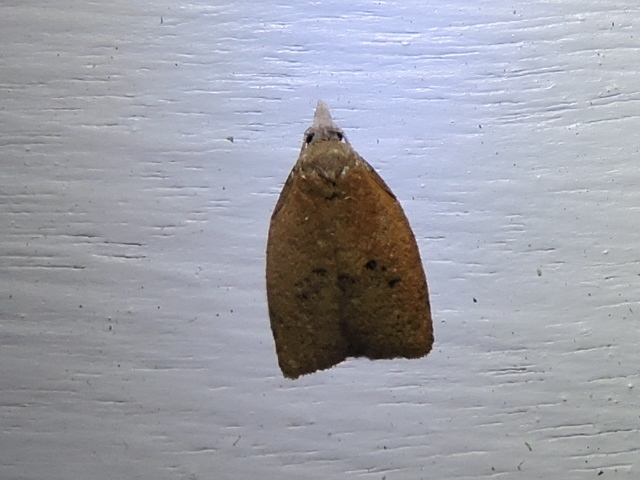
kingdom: Animalia
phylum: Arthropoda
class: Insecta
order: Lepidoptera
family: Tortricidae
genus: Sparganothoides
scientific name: Sparganothoides lentiginosana
